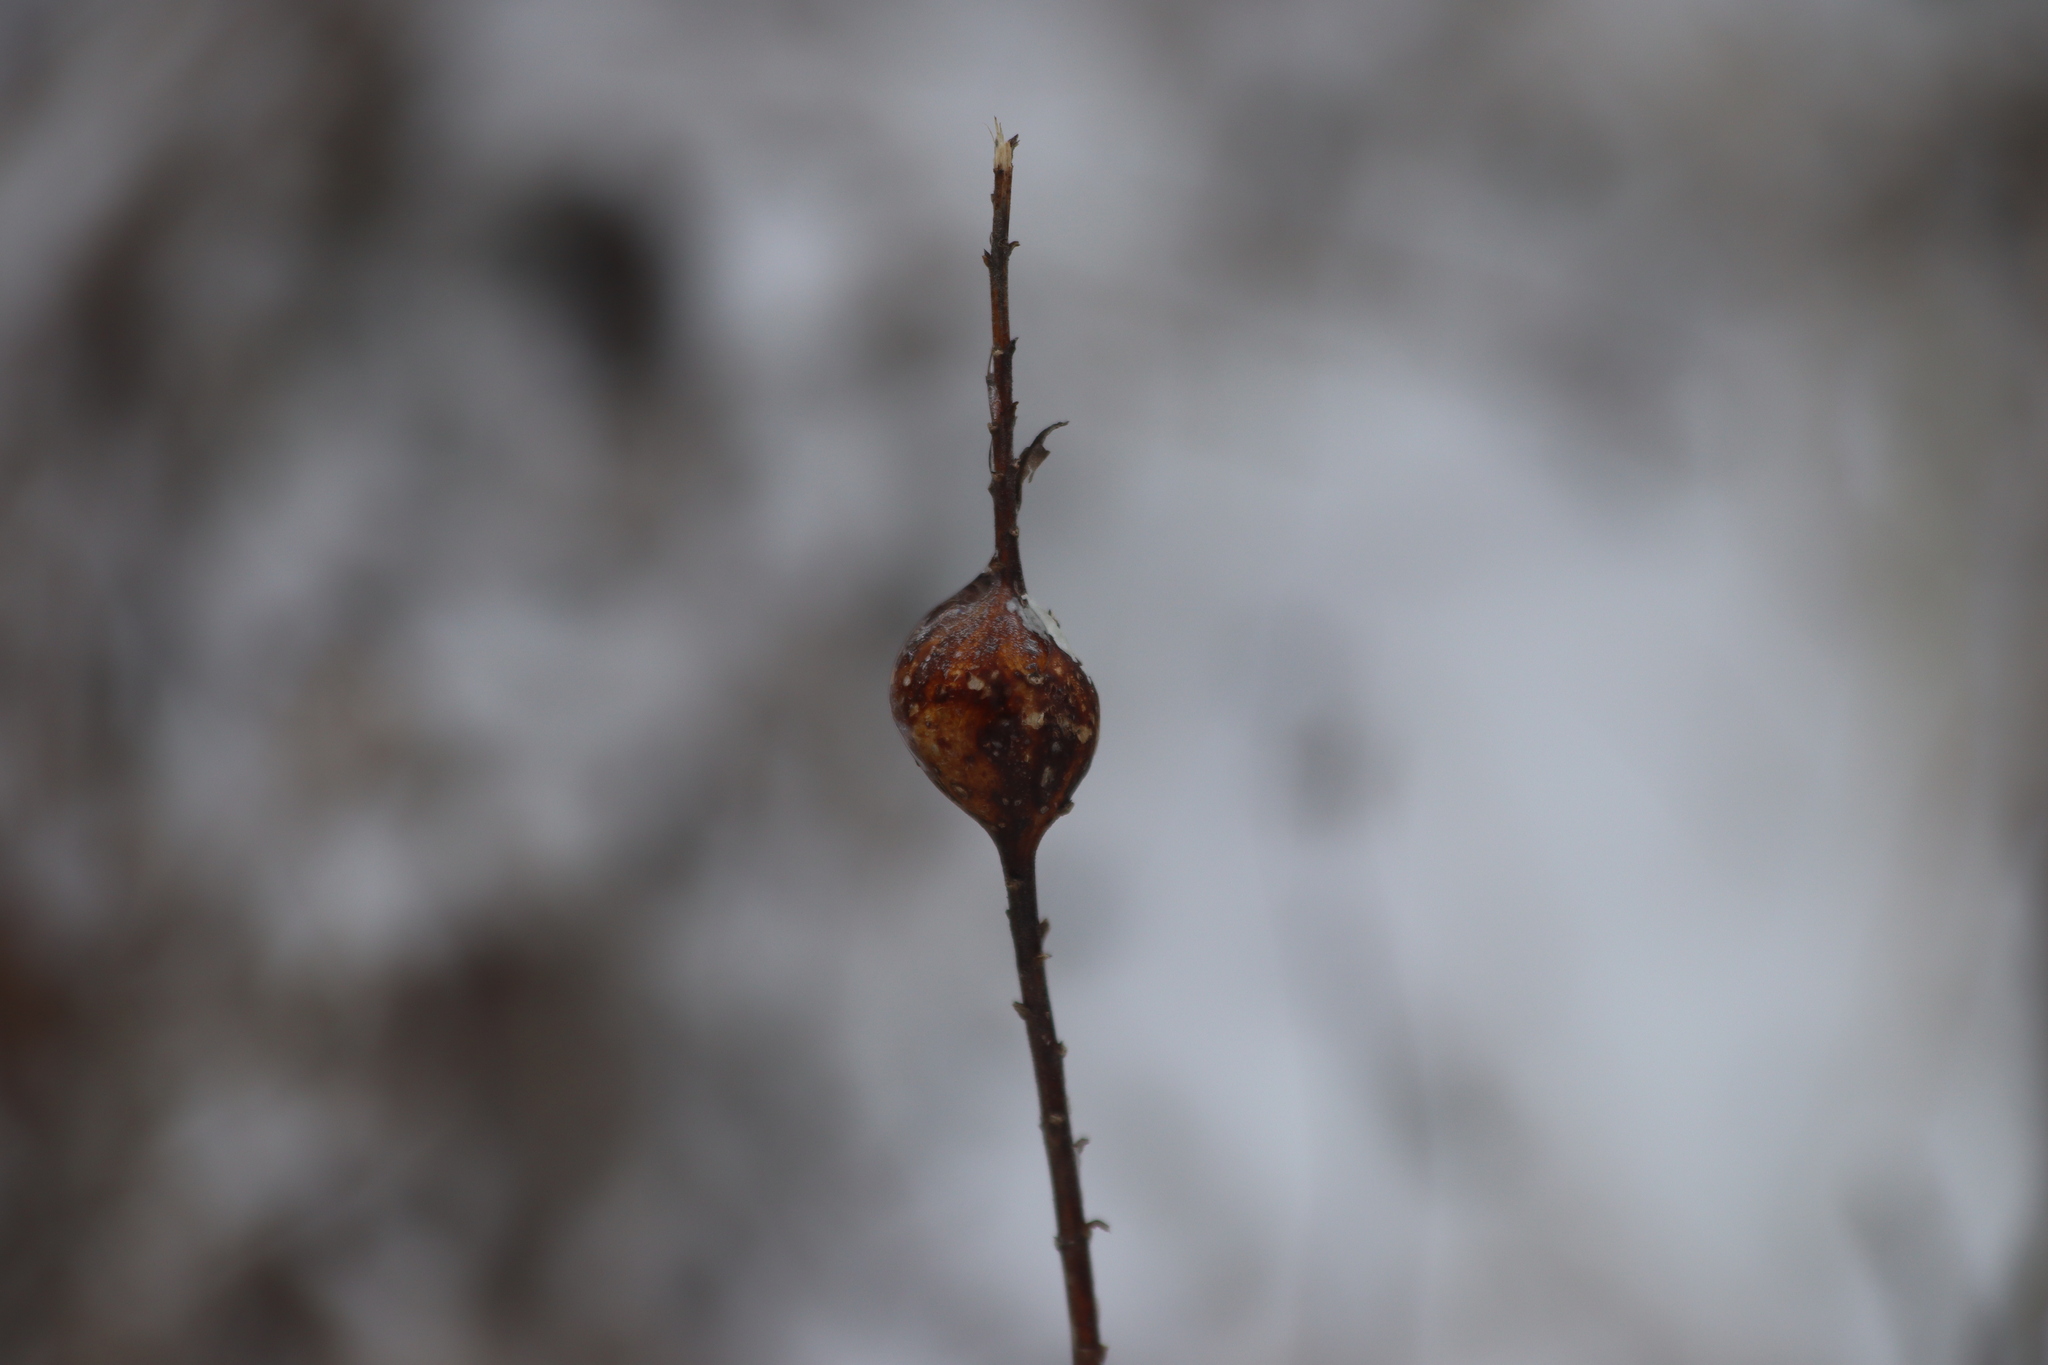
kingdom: Animalia
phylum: Arthropoda
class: Insecta
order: Diptera
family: Tephritidae
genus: Eurosta
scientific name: Eurosta solidaginis
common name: Goldenrod gall fly
